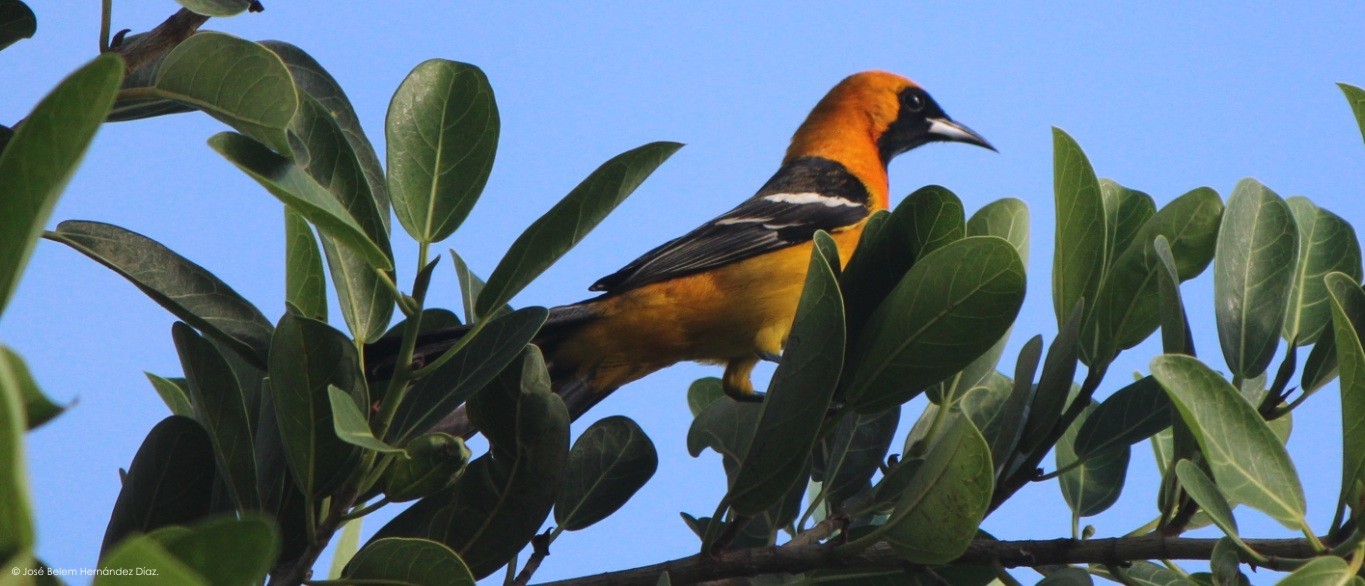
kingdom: Animalia
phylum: Chordata
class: Aves
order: Passeriformes
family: Icteridae
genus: Icterus
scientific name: Icterus cucullatus
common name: Hooded oriole
